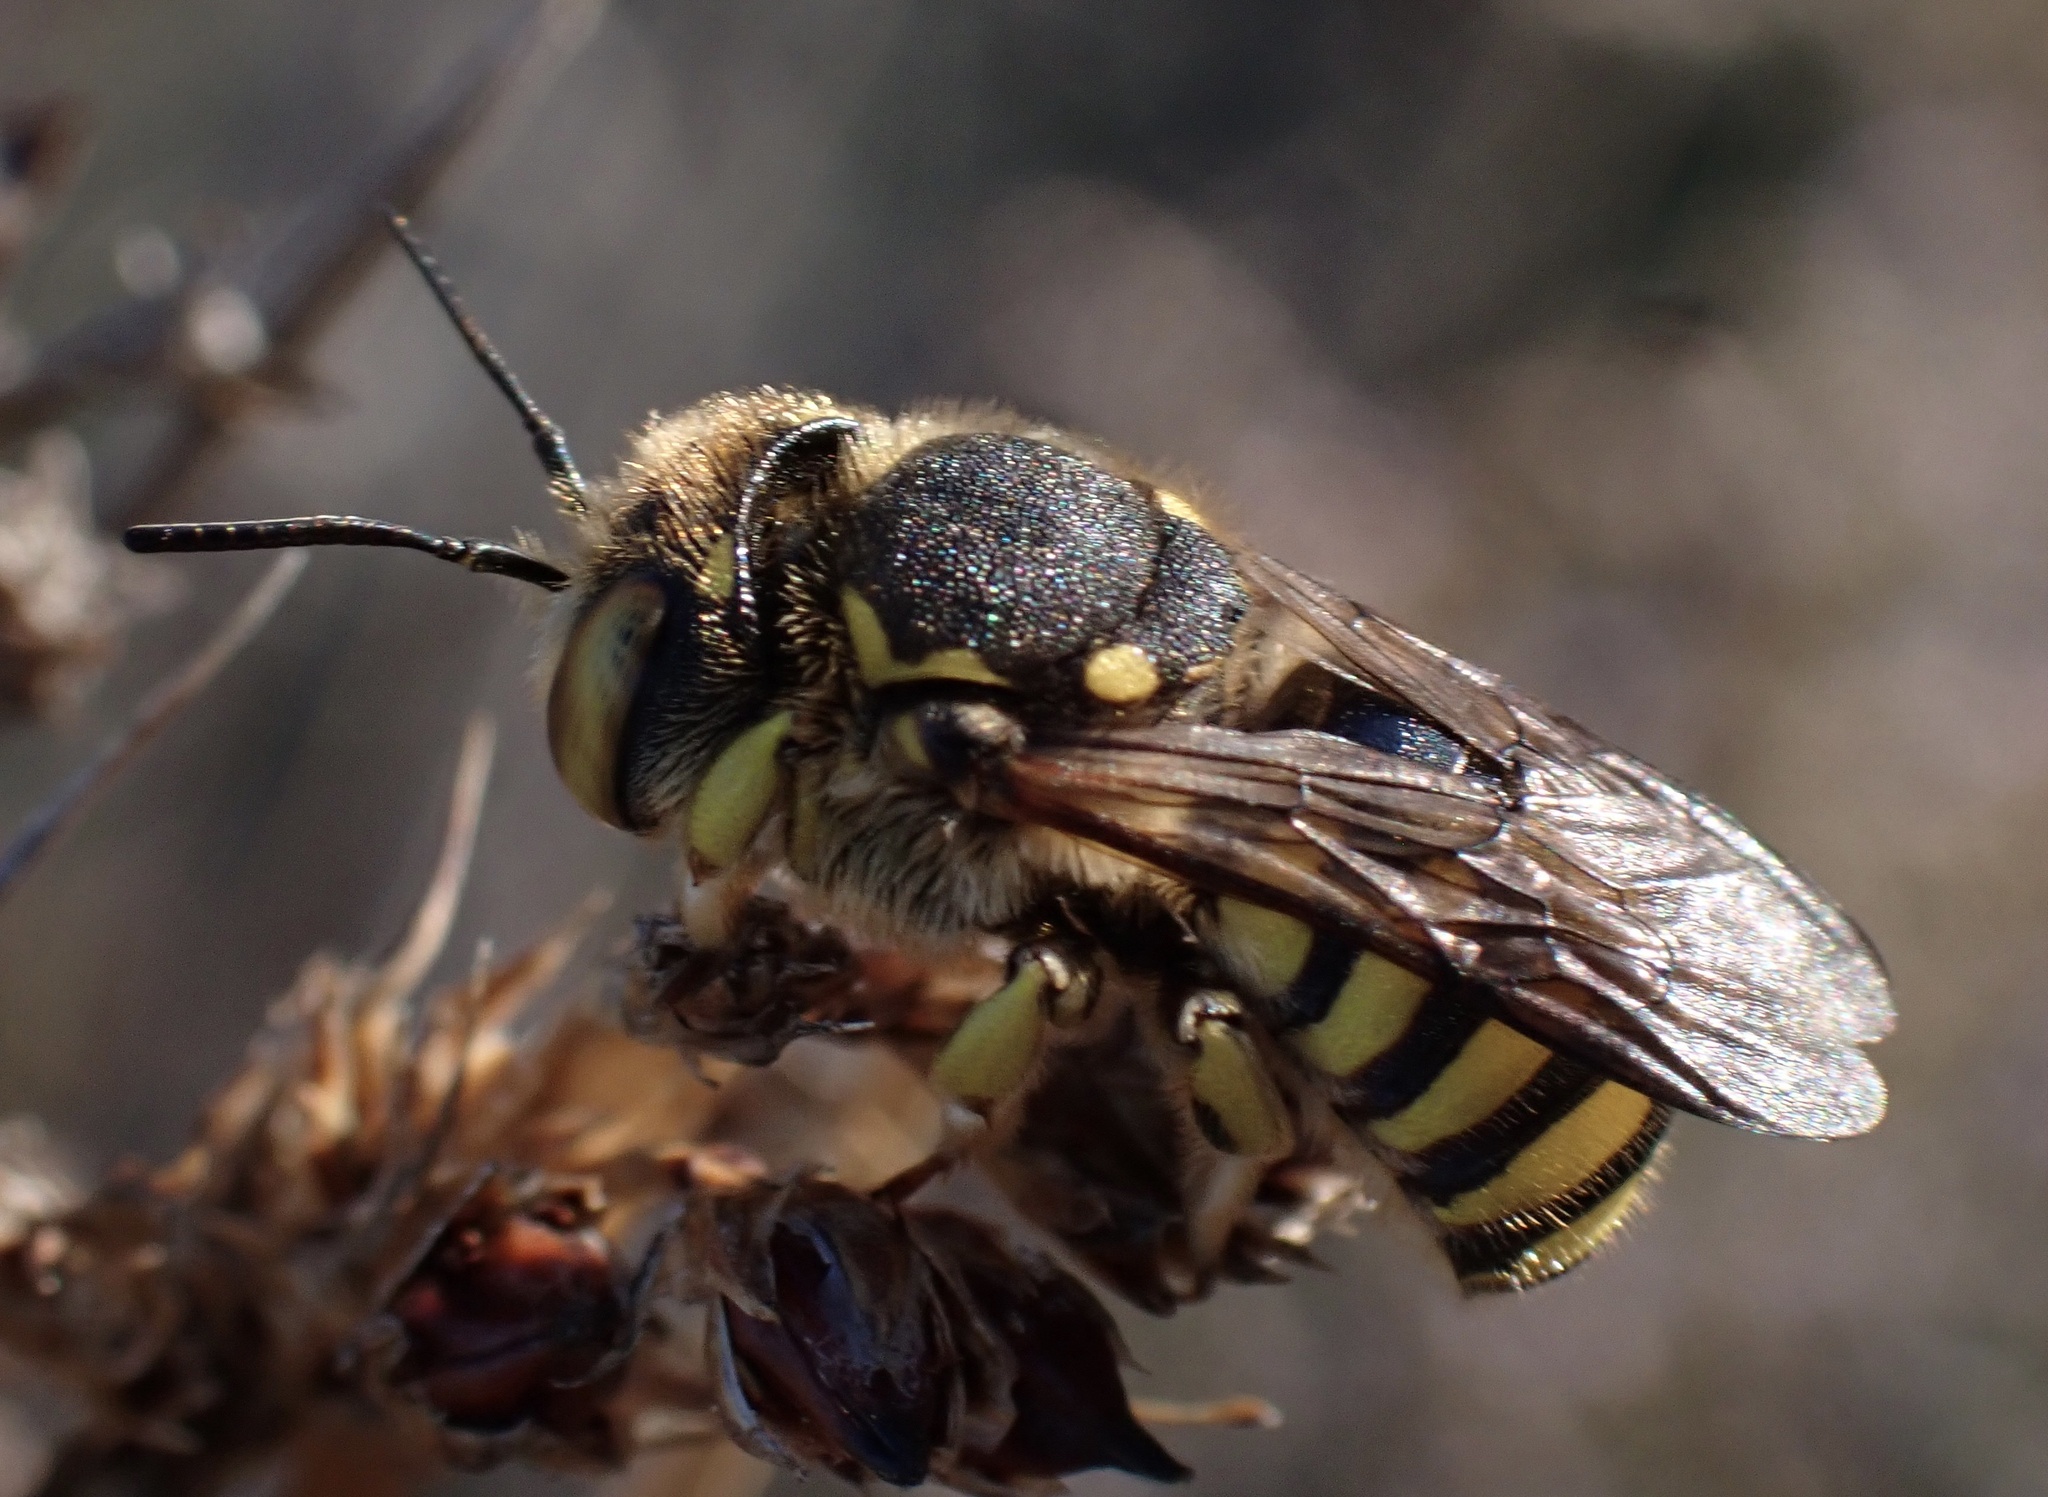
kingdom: Animalia
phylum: Arthropoda
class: Insecta
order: Hymenoptera
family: Megachilidae
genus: Anthidium
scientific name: Anthidium florentinum
